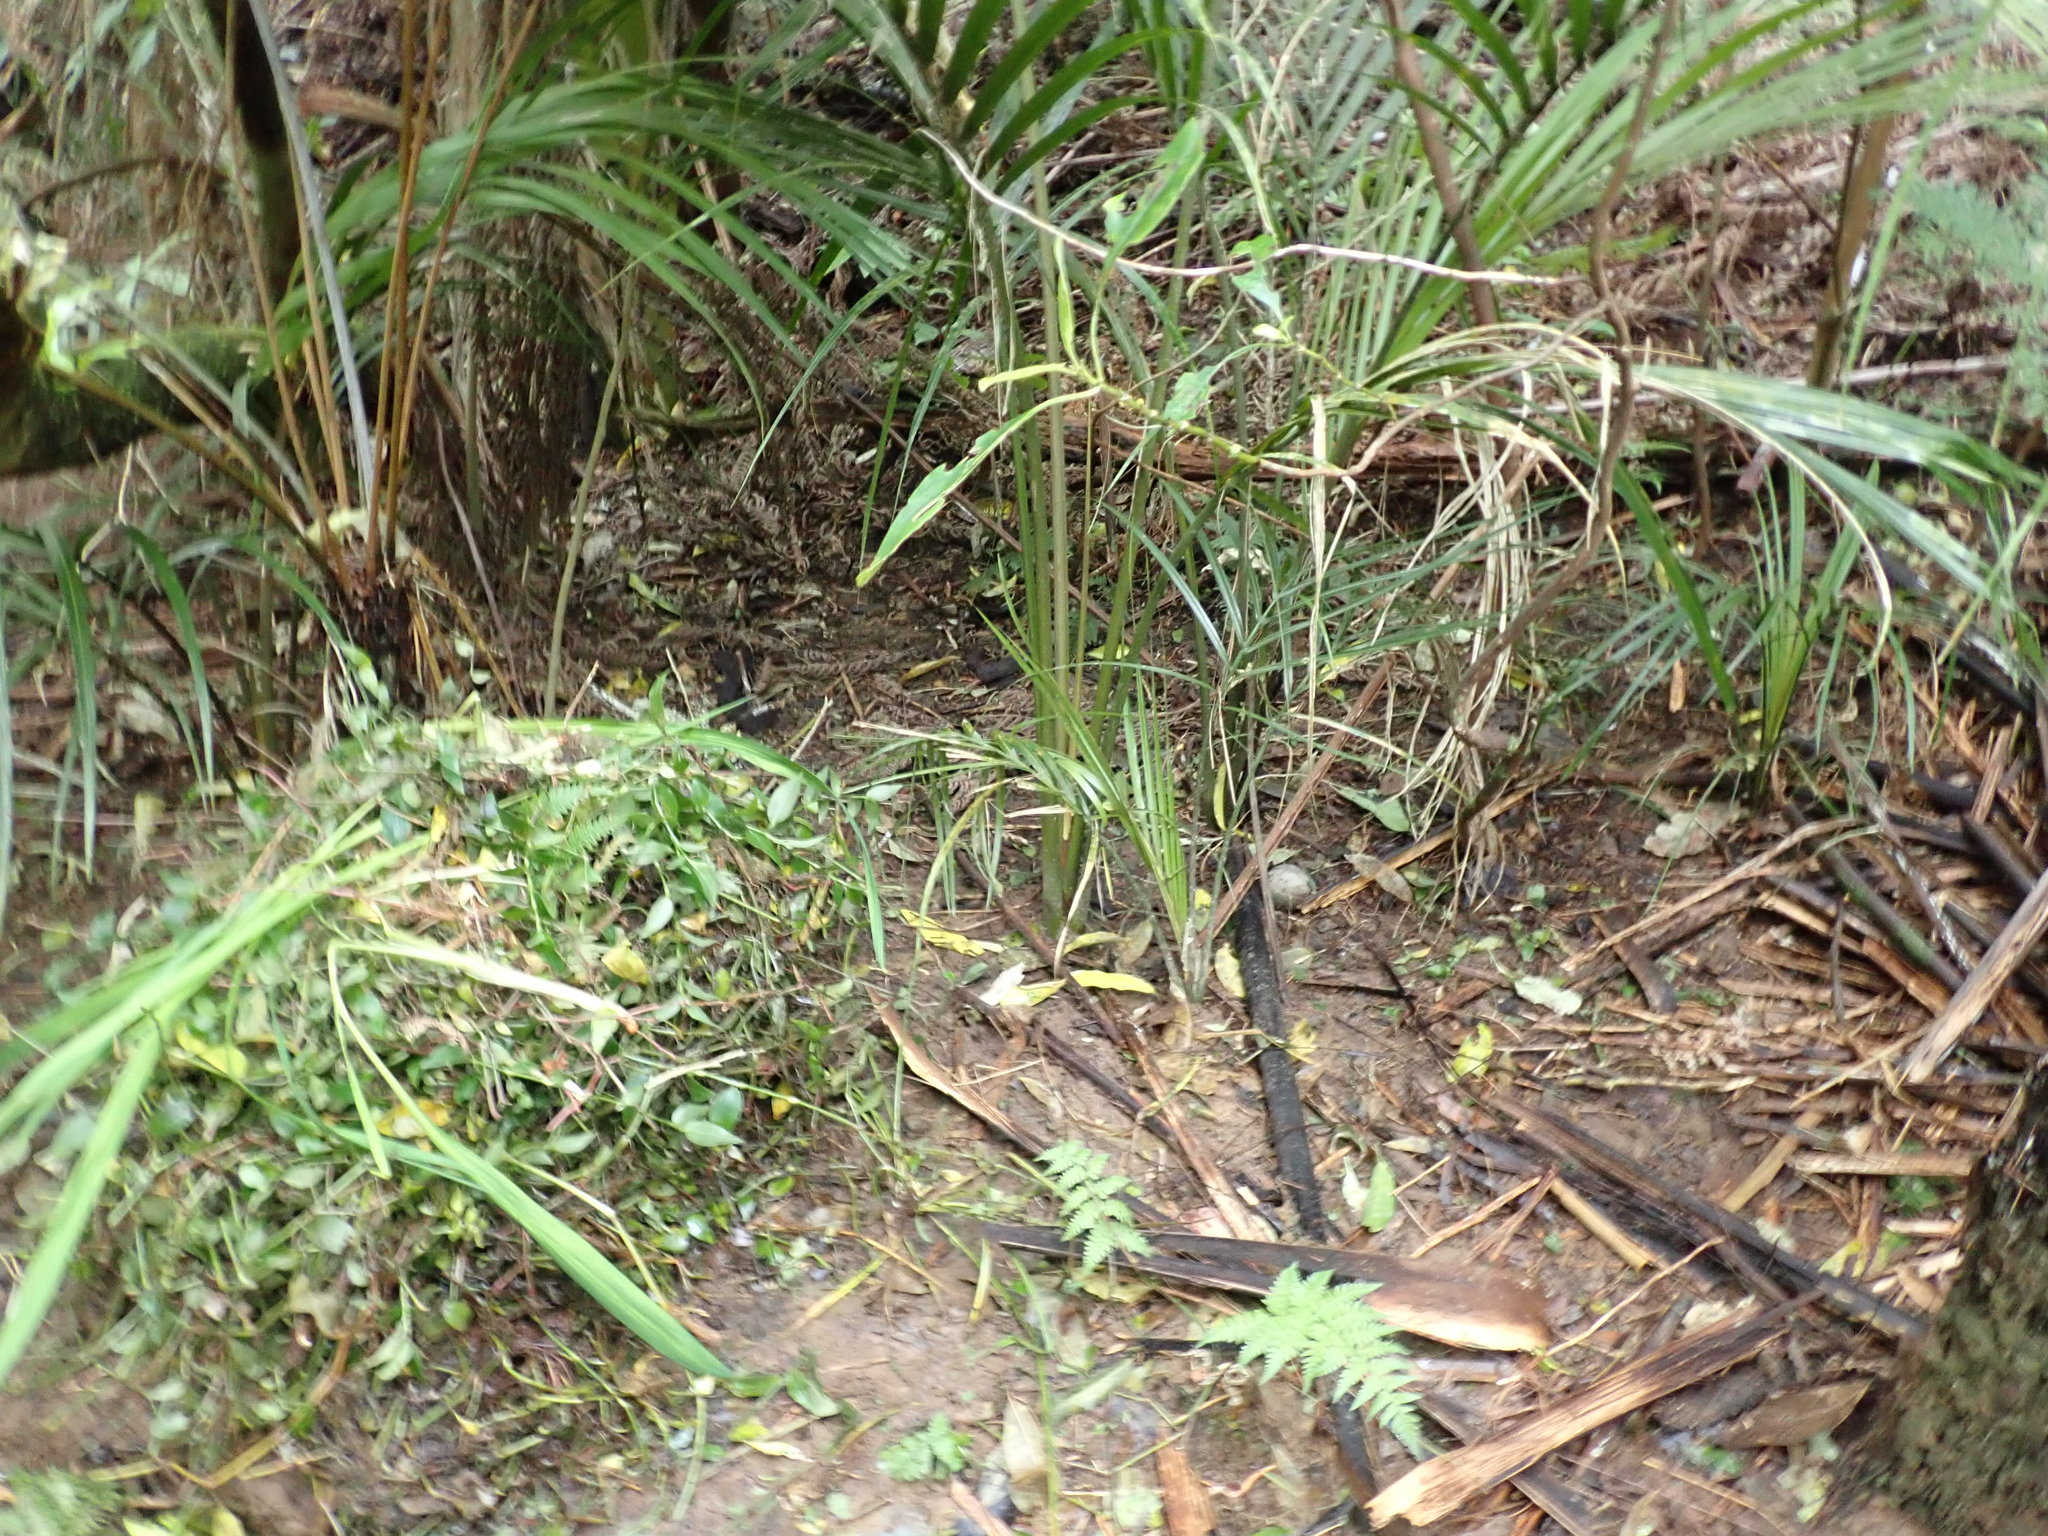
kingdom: Plantae
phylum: Tracheophyta
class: Liliopsida
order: Arecales
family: Arecaceae
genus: Rhopalostylis
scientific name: Rhopalostylis sapida
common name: Feather-duster palm
